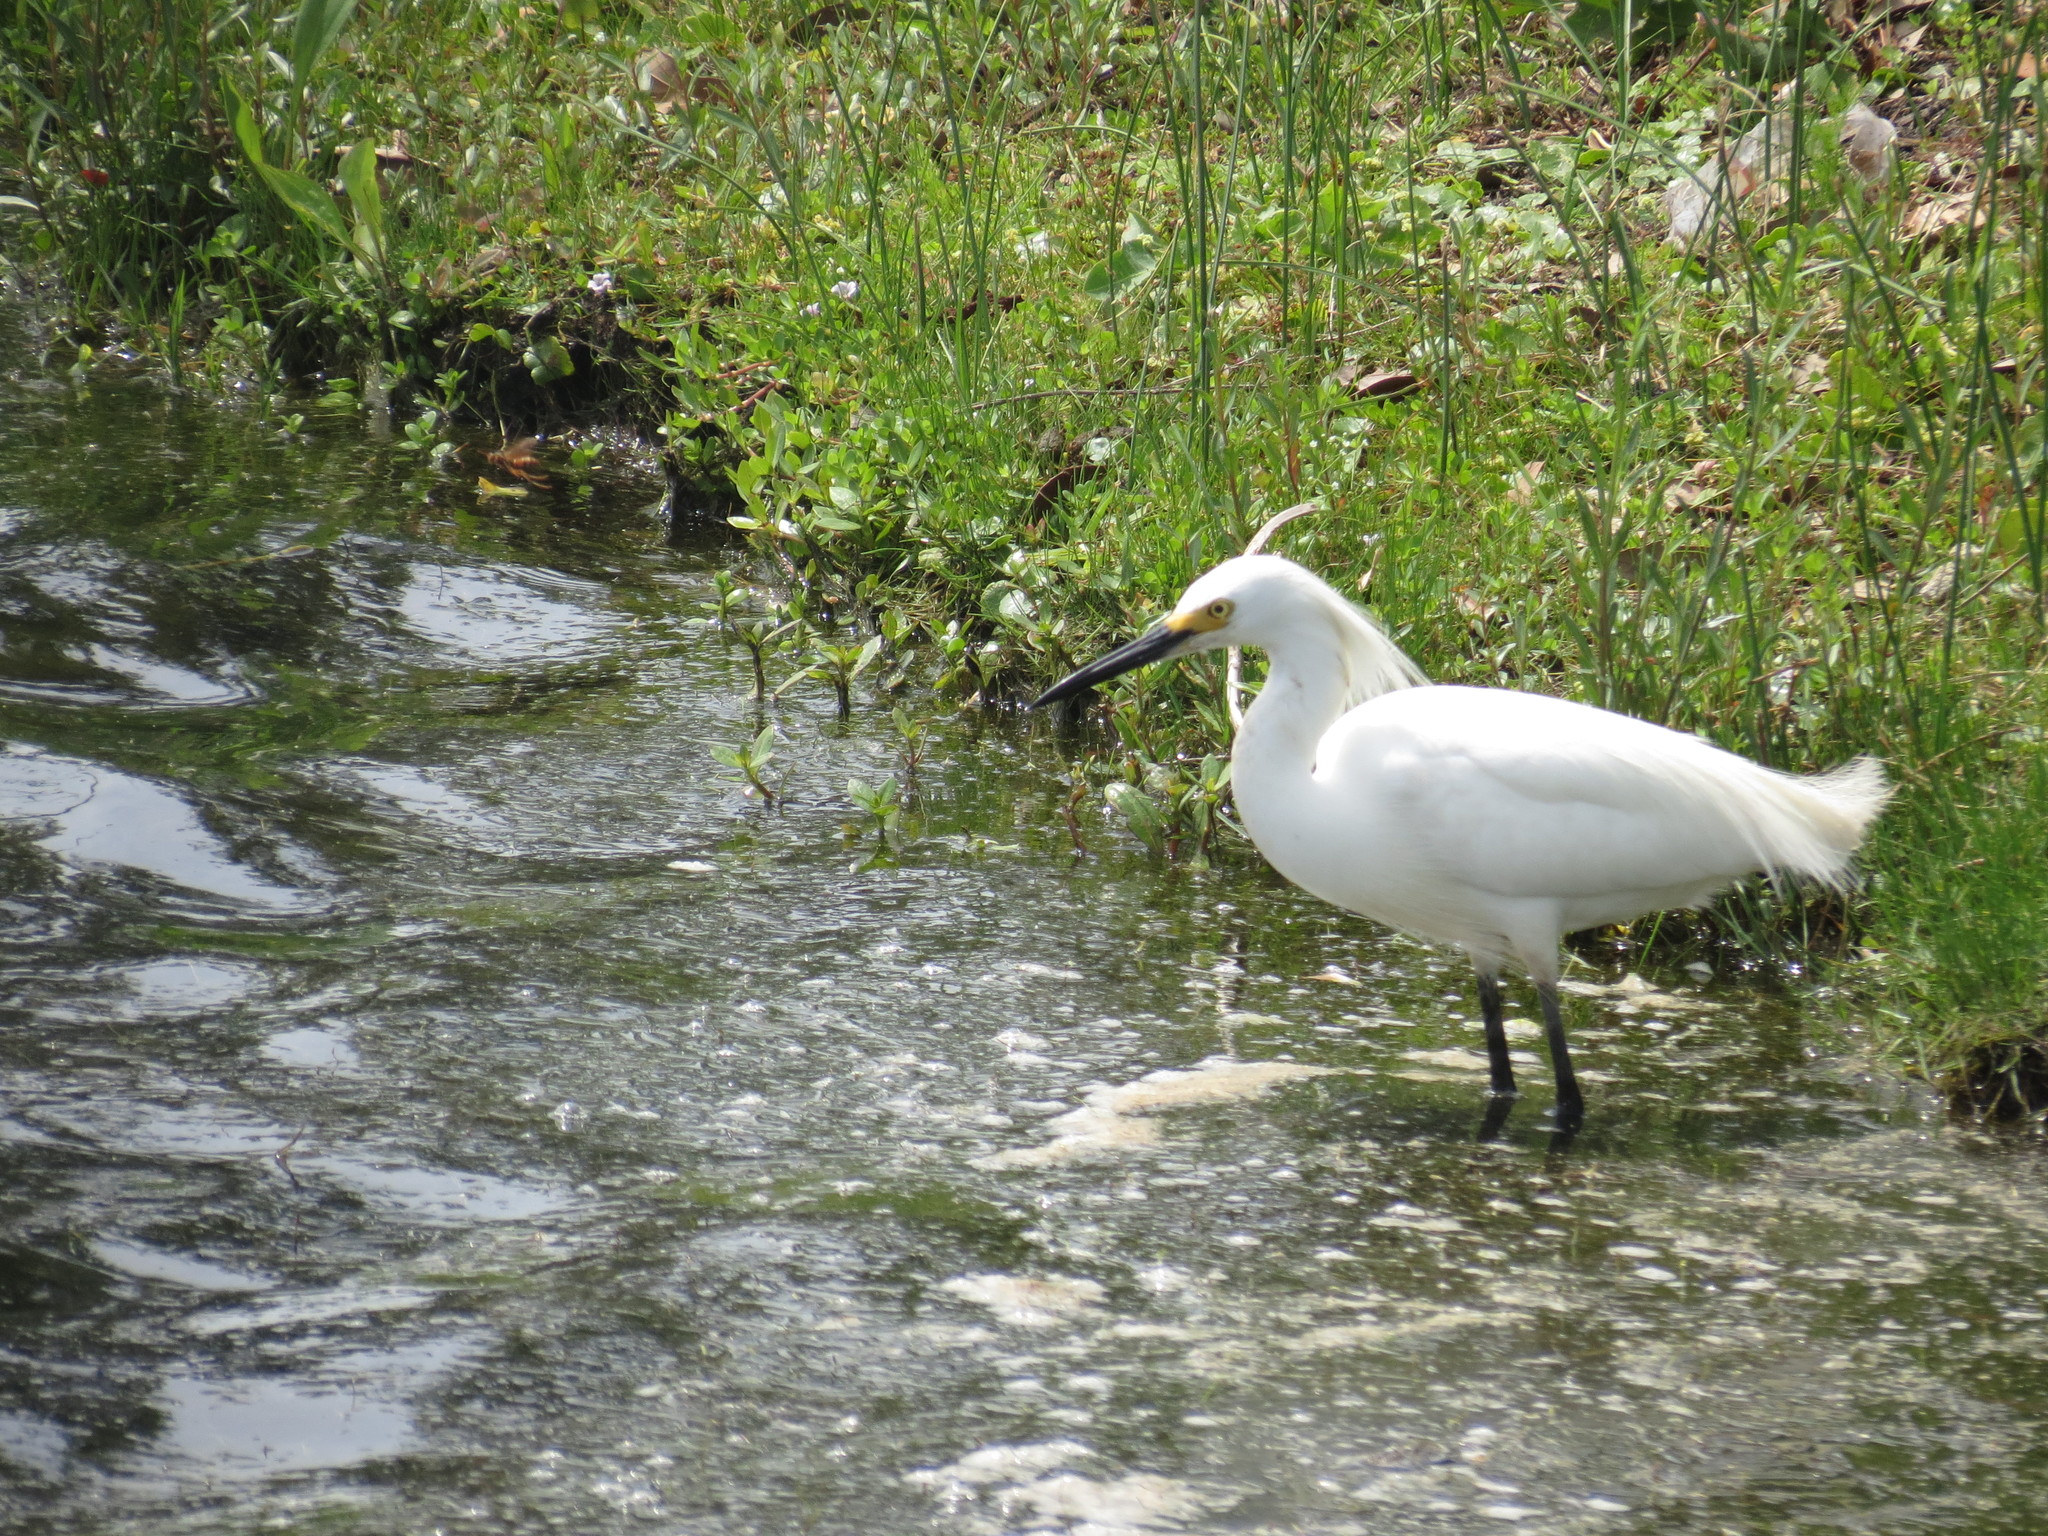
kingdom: Animalia
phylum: Chordata
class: Aves
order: Pelecaniformes
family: Ardeidae
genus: Egretta
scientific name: Egretta thula
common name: Snowy egret
